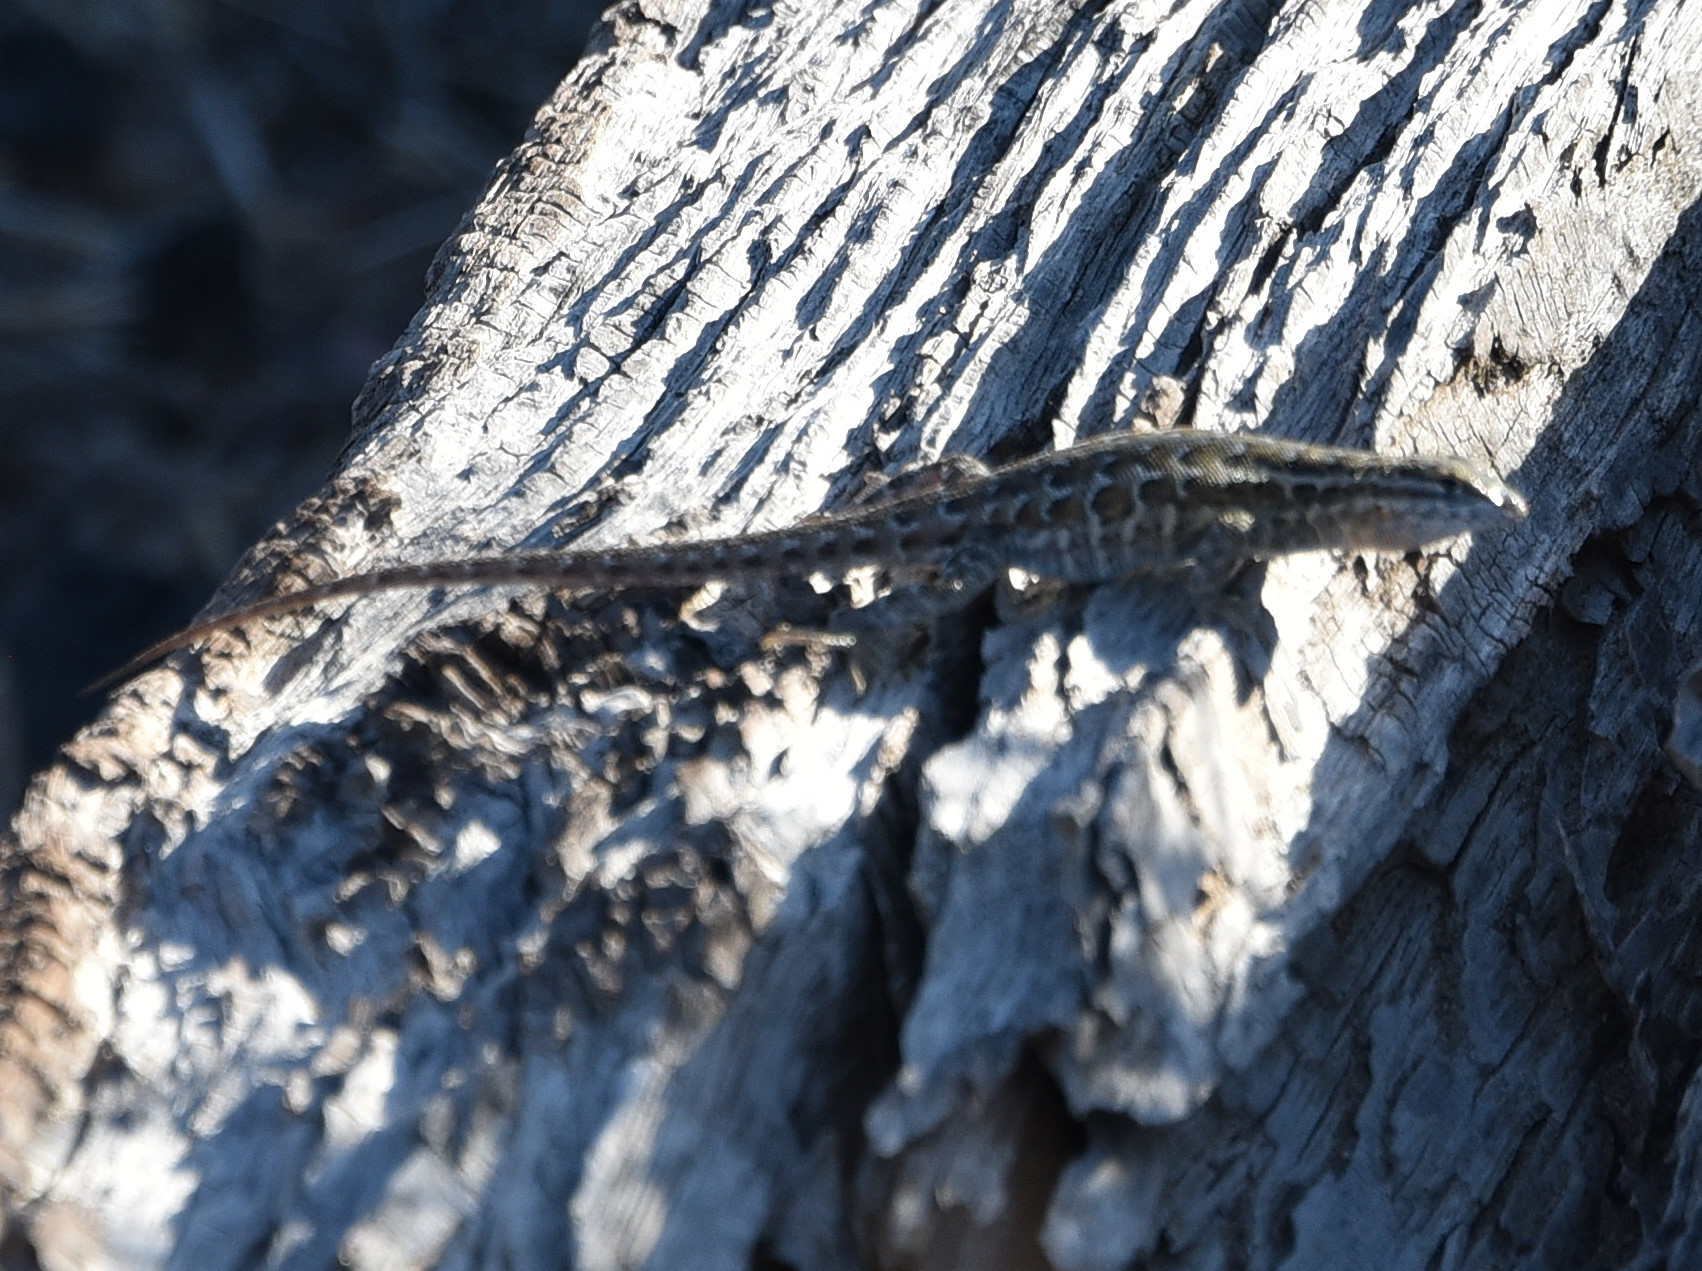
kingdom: Animalia
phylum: Chordata
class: Squamata
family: Phrynosomatidae
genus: Uta
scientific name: Uta stansburiana
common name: Side-blotched lizard
